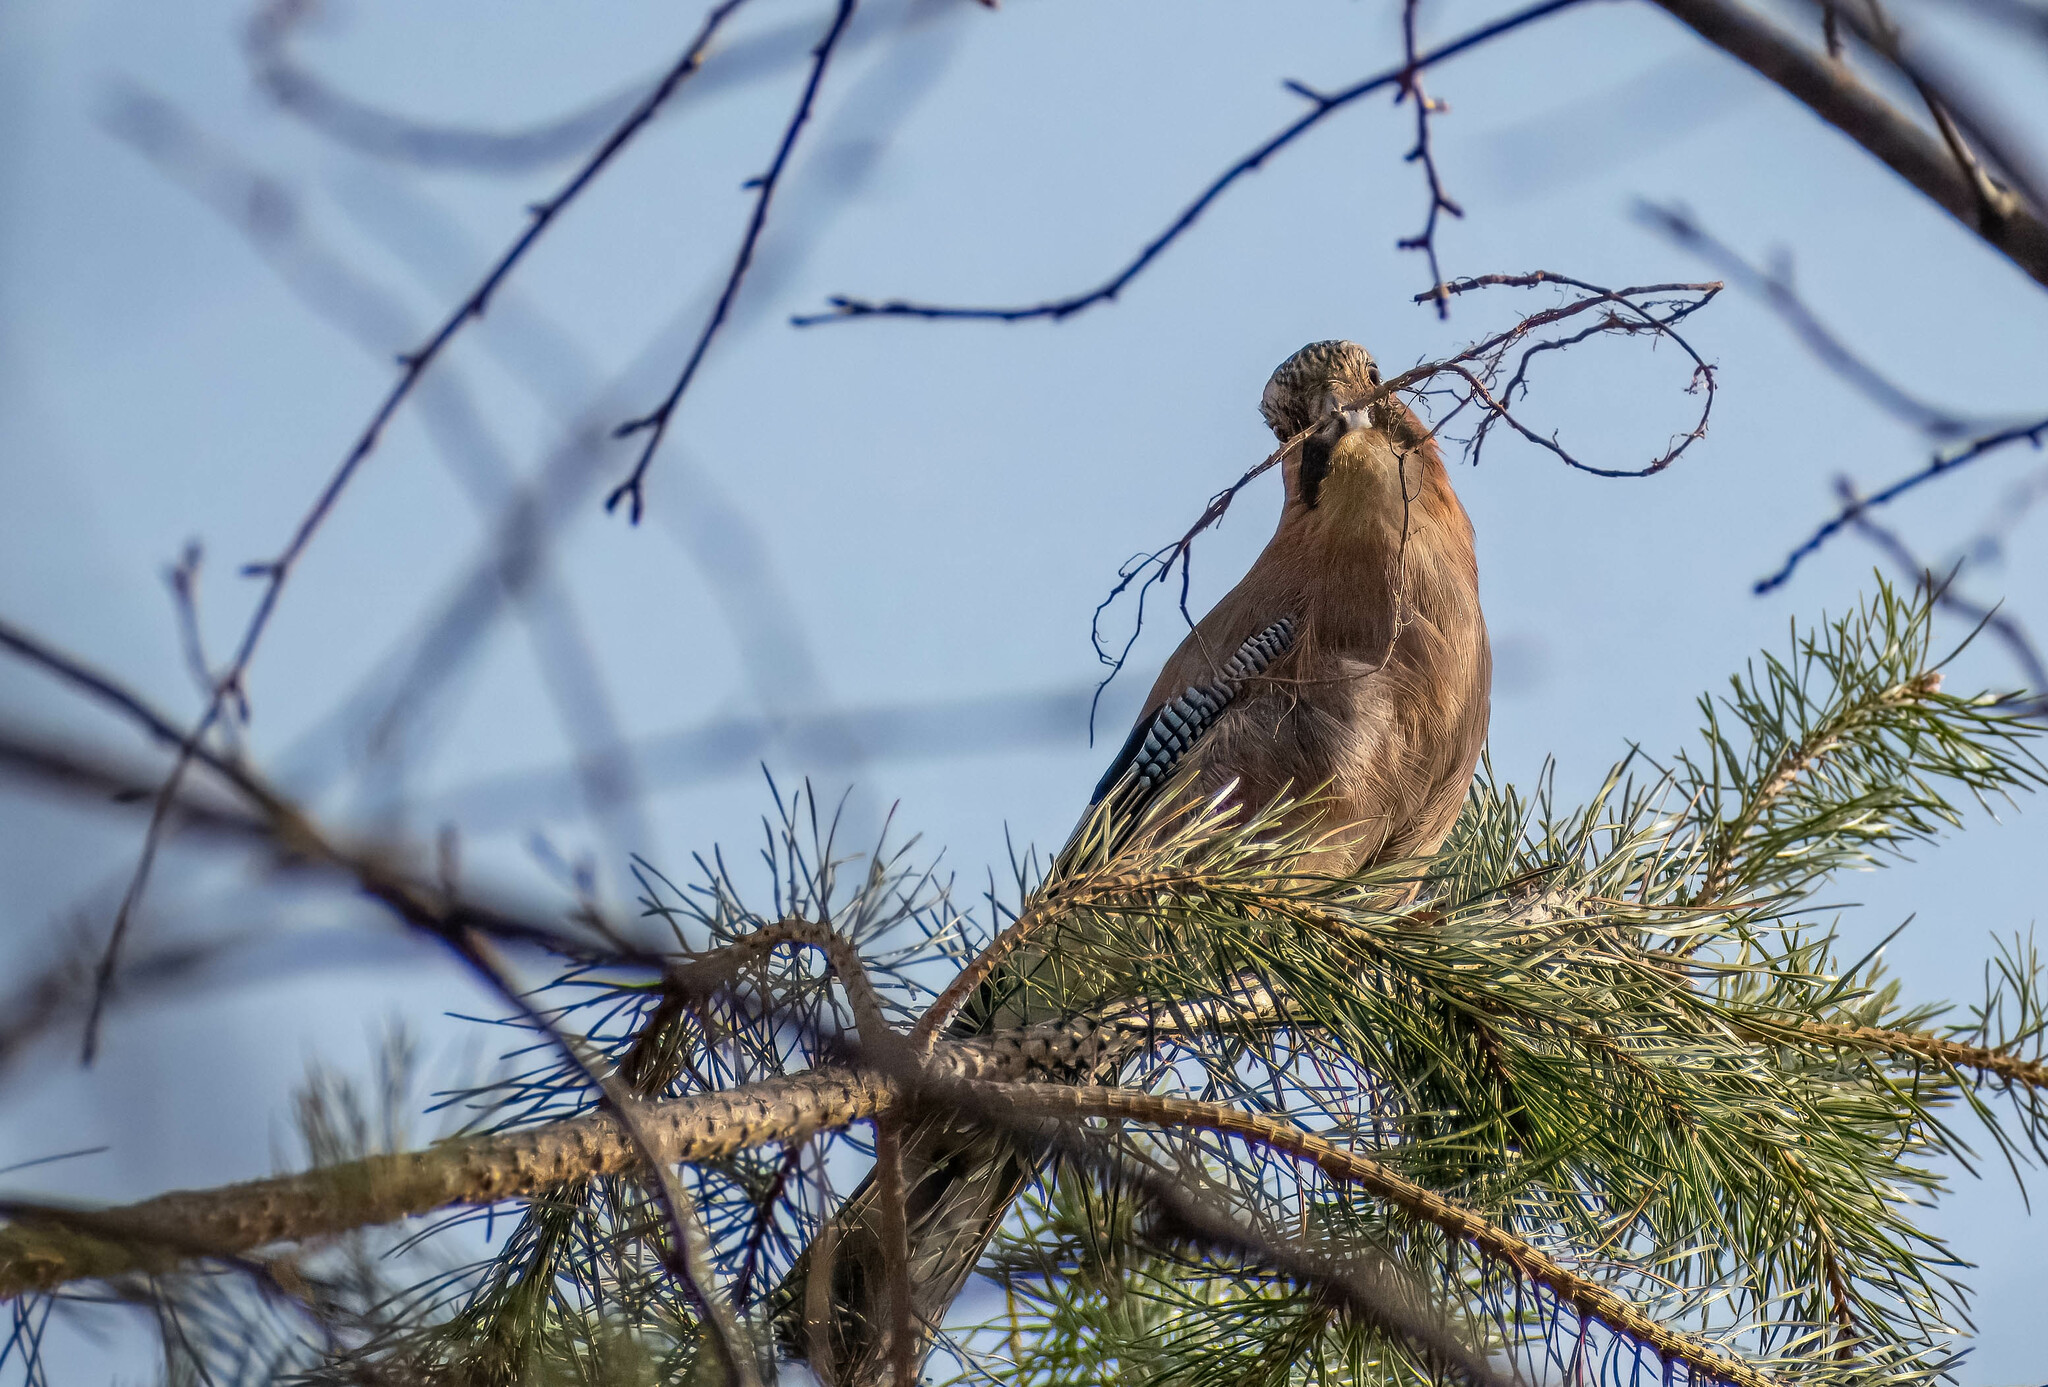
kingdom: Animalia
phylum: Chordata
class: Aves
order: Passeriformes
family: Corvidae
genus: Garrulus
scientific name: Garrulus glandarius
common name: Eurasian jay
